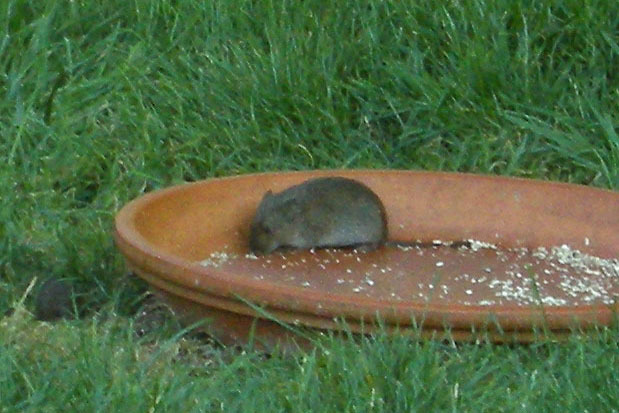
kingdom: Animalia
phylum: Chordata
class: Mammalia
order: Rodentia
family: Cricetidae
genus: Microtus
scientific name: Microtus pennsylvanicus
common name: Meadow vole
